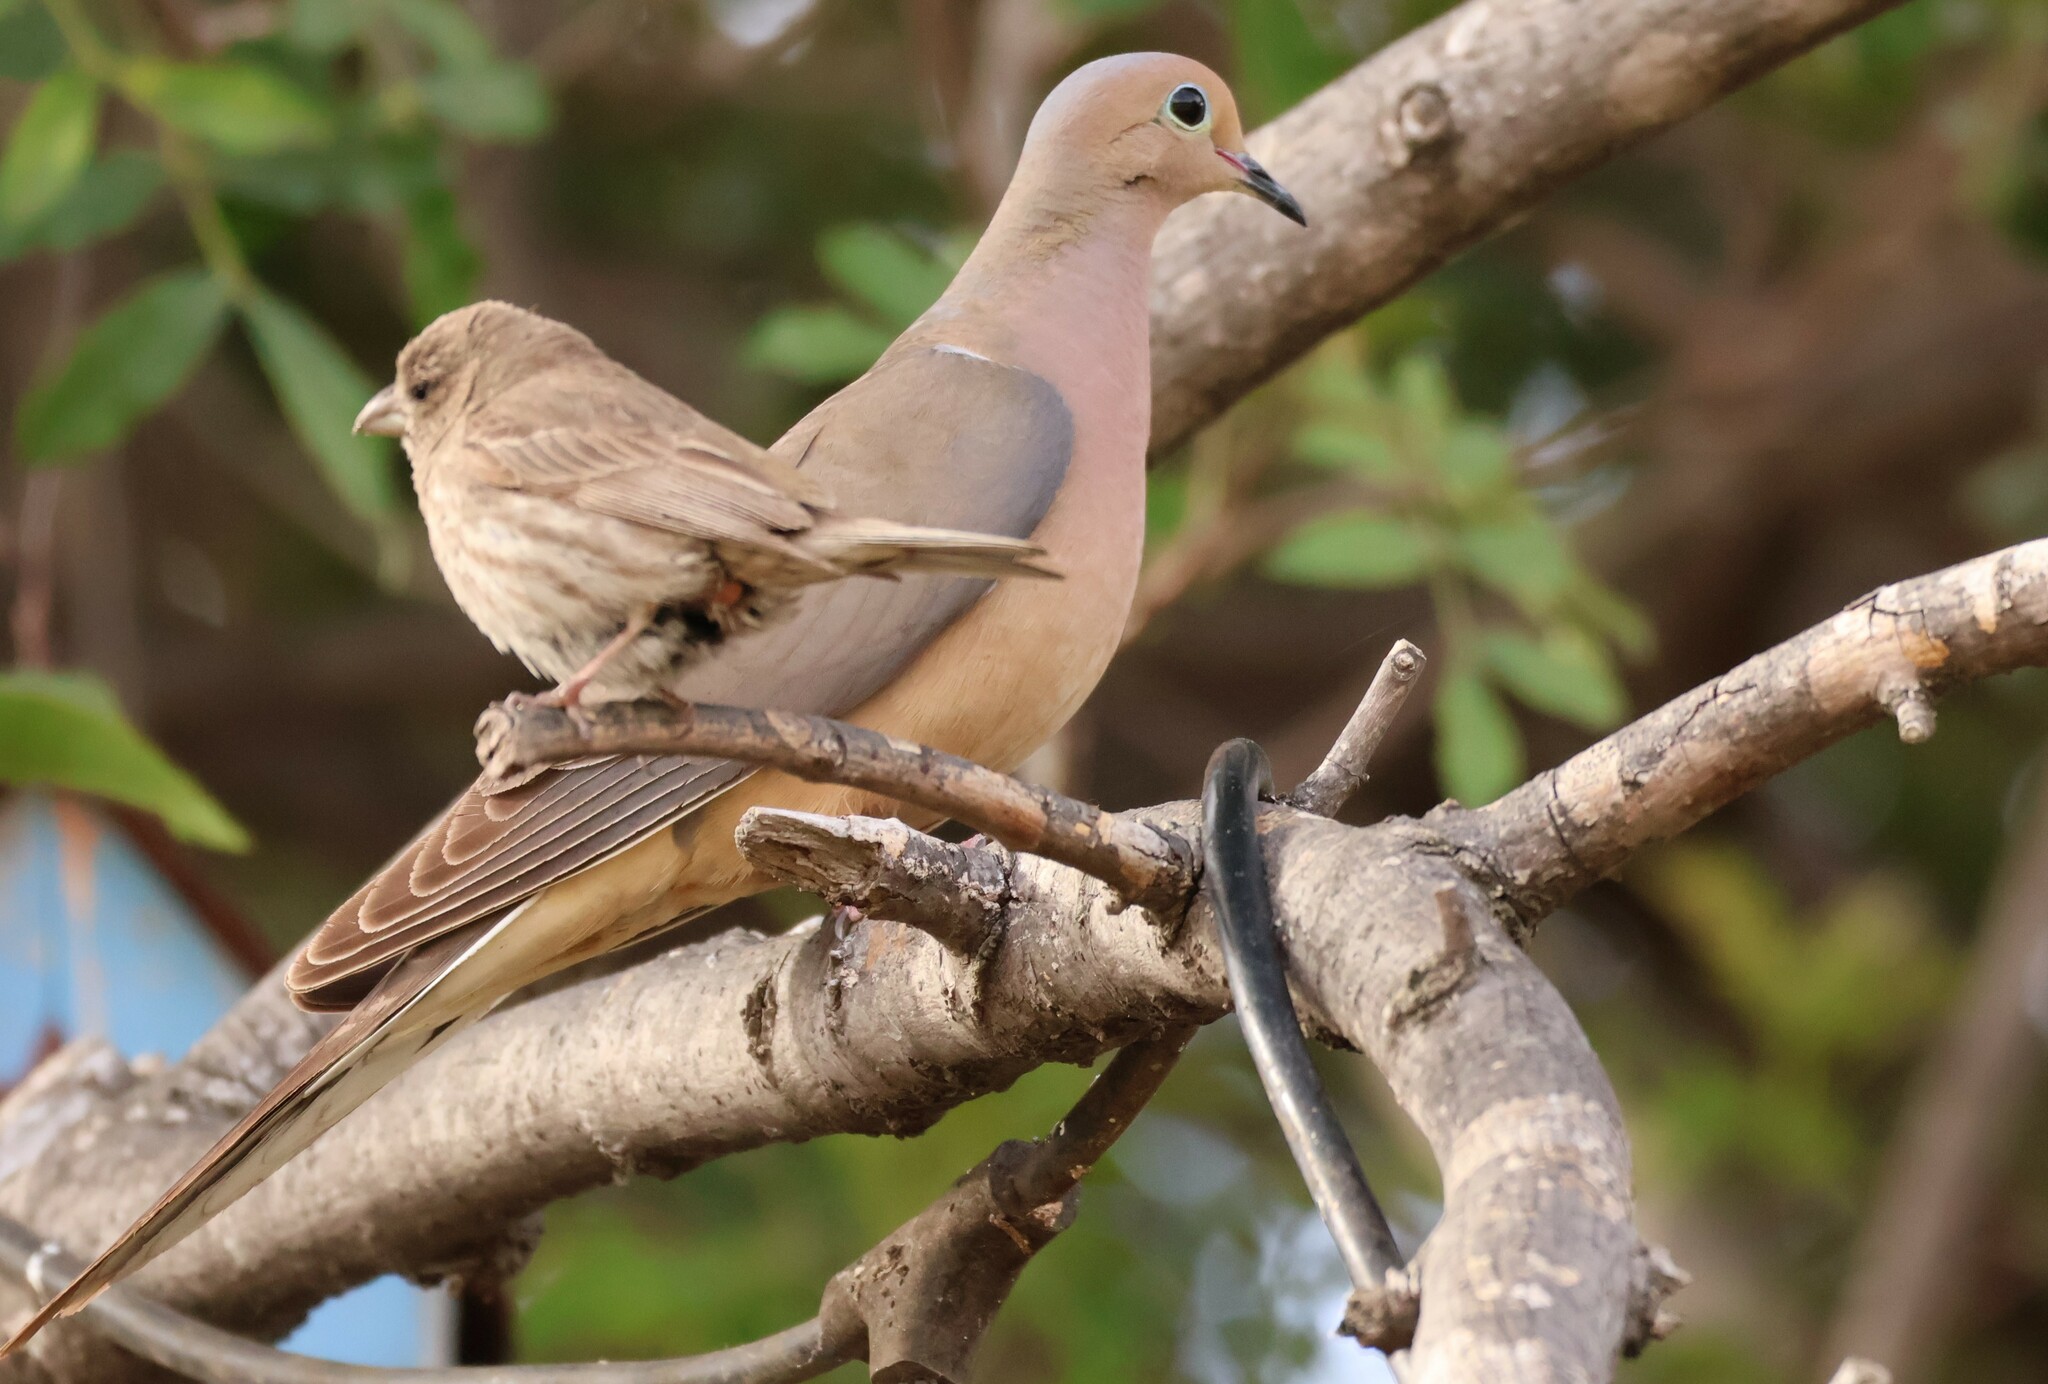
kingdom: Animalia
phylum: Chordata
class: Aves
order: Passeriformes
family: Fringillidae
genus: Haemorhous
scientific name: Haemorhous mexicanus
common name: House finch
